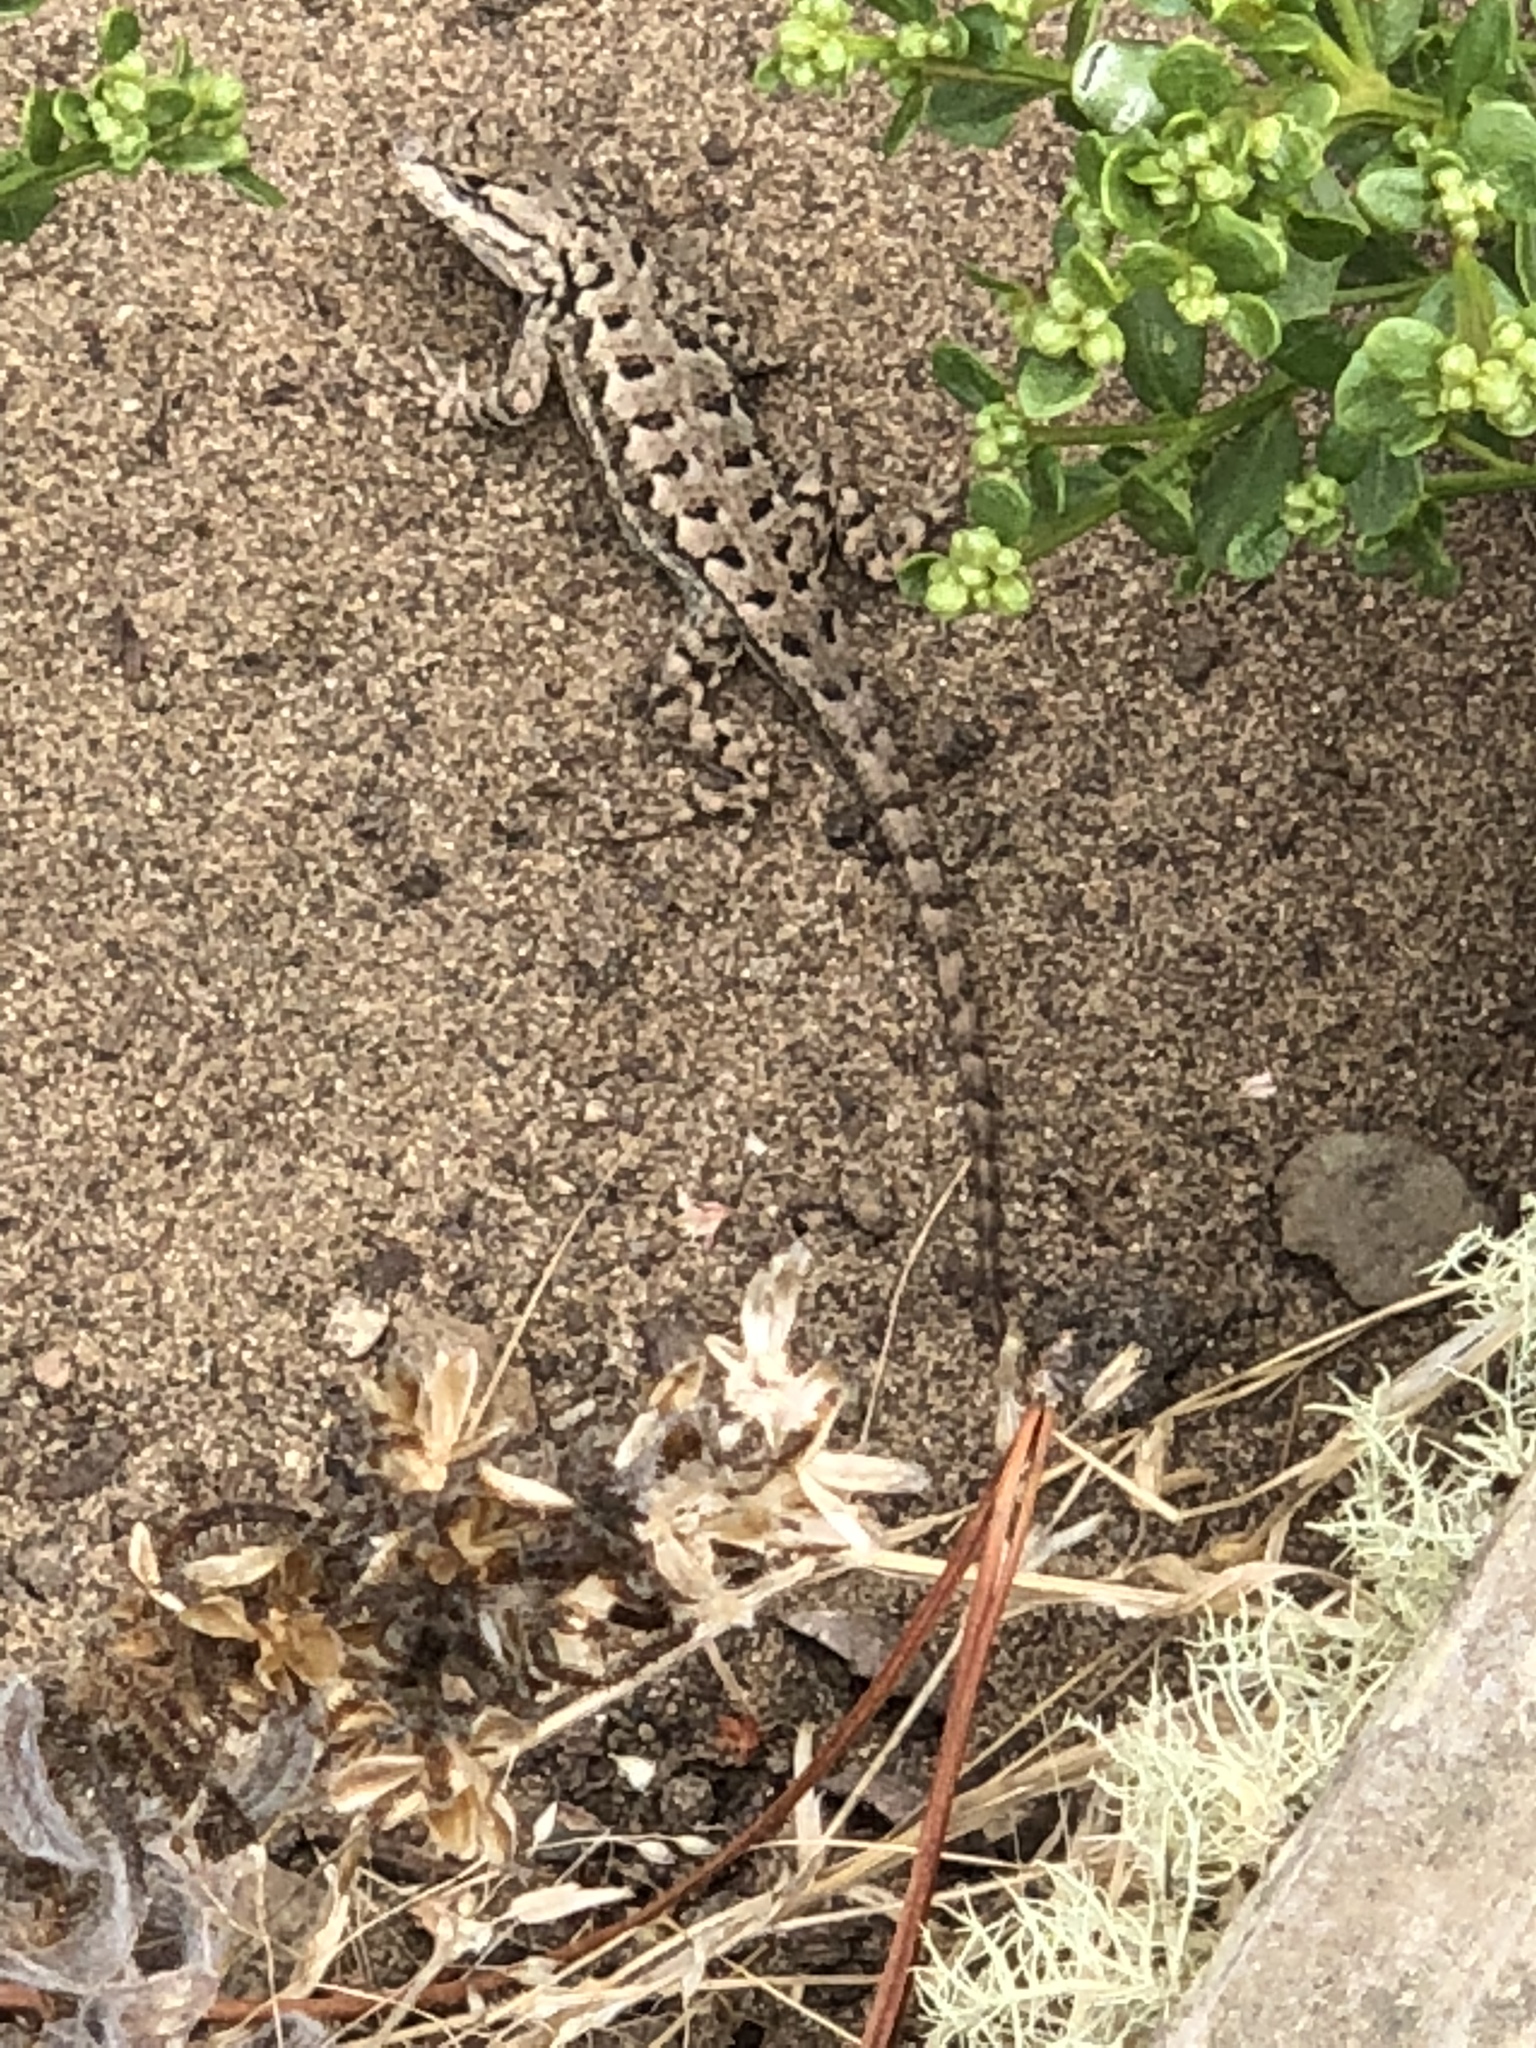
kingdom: Animalia
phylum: Chordata
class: Squamata
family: Phrynosomatidae
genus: Sceloporus
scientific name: Sceloporus occidentalis
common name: Western fence lizard
